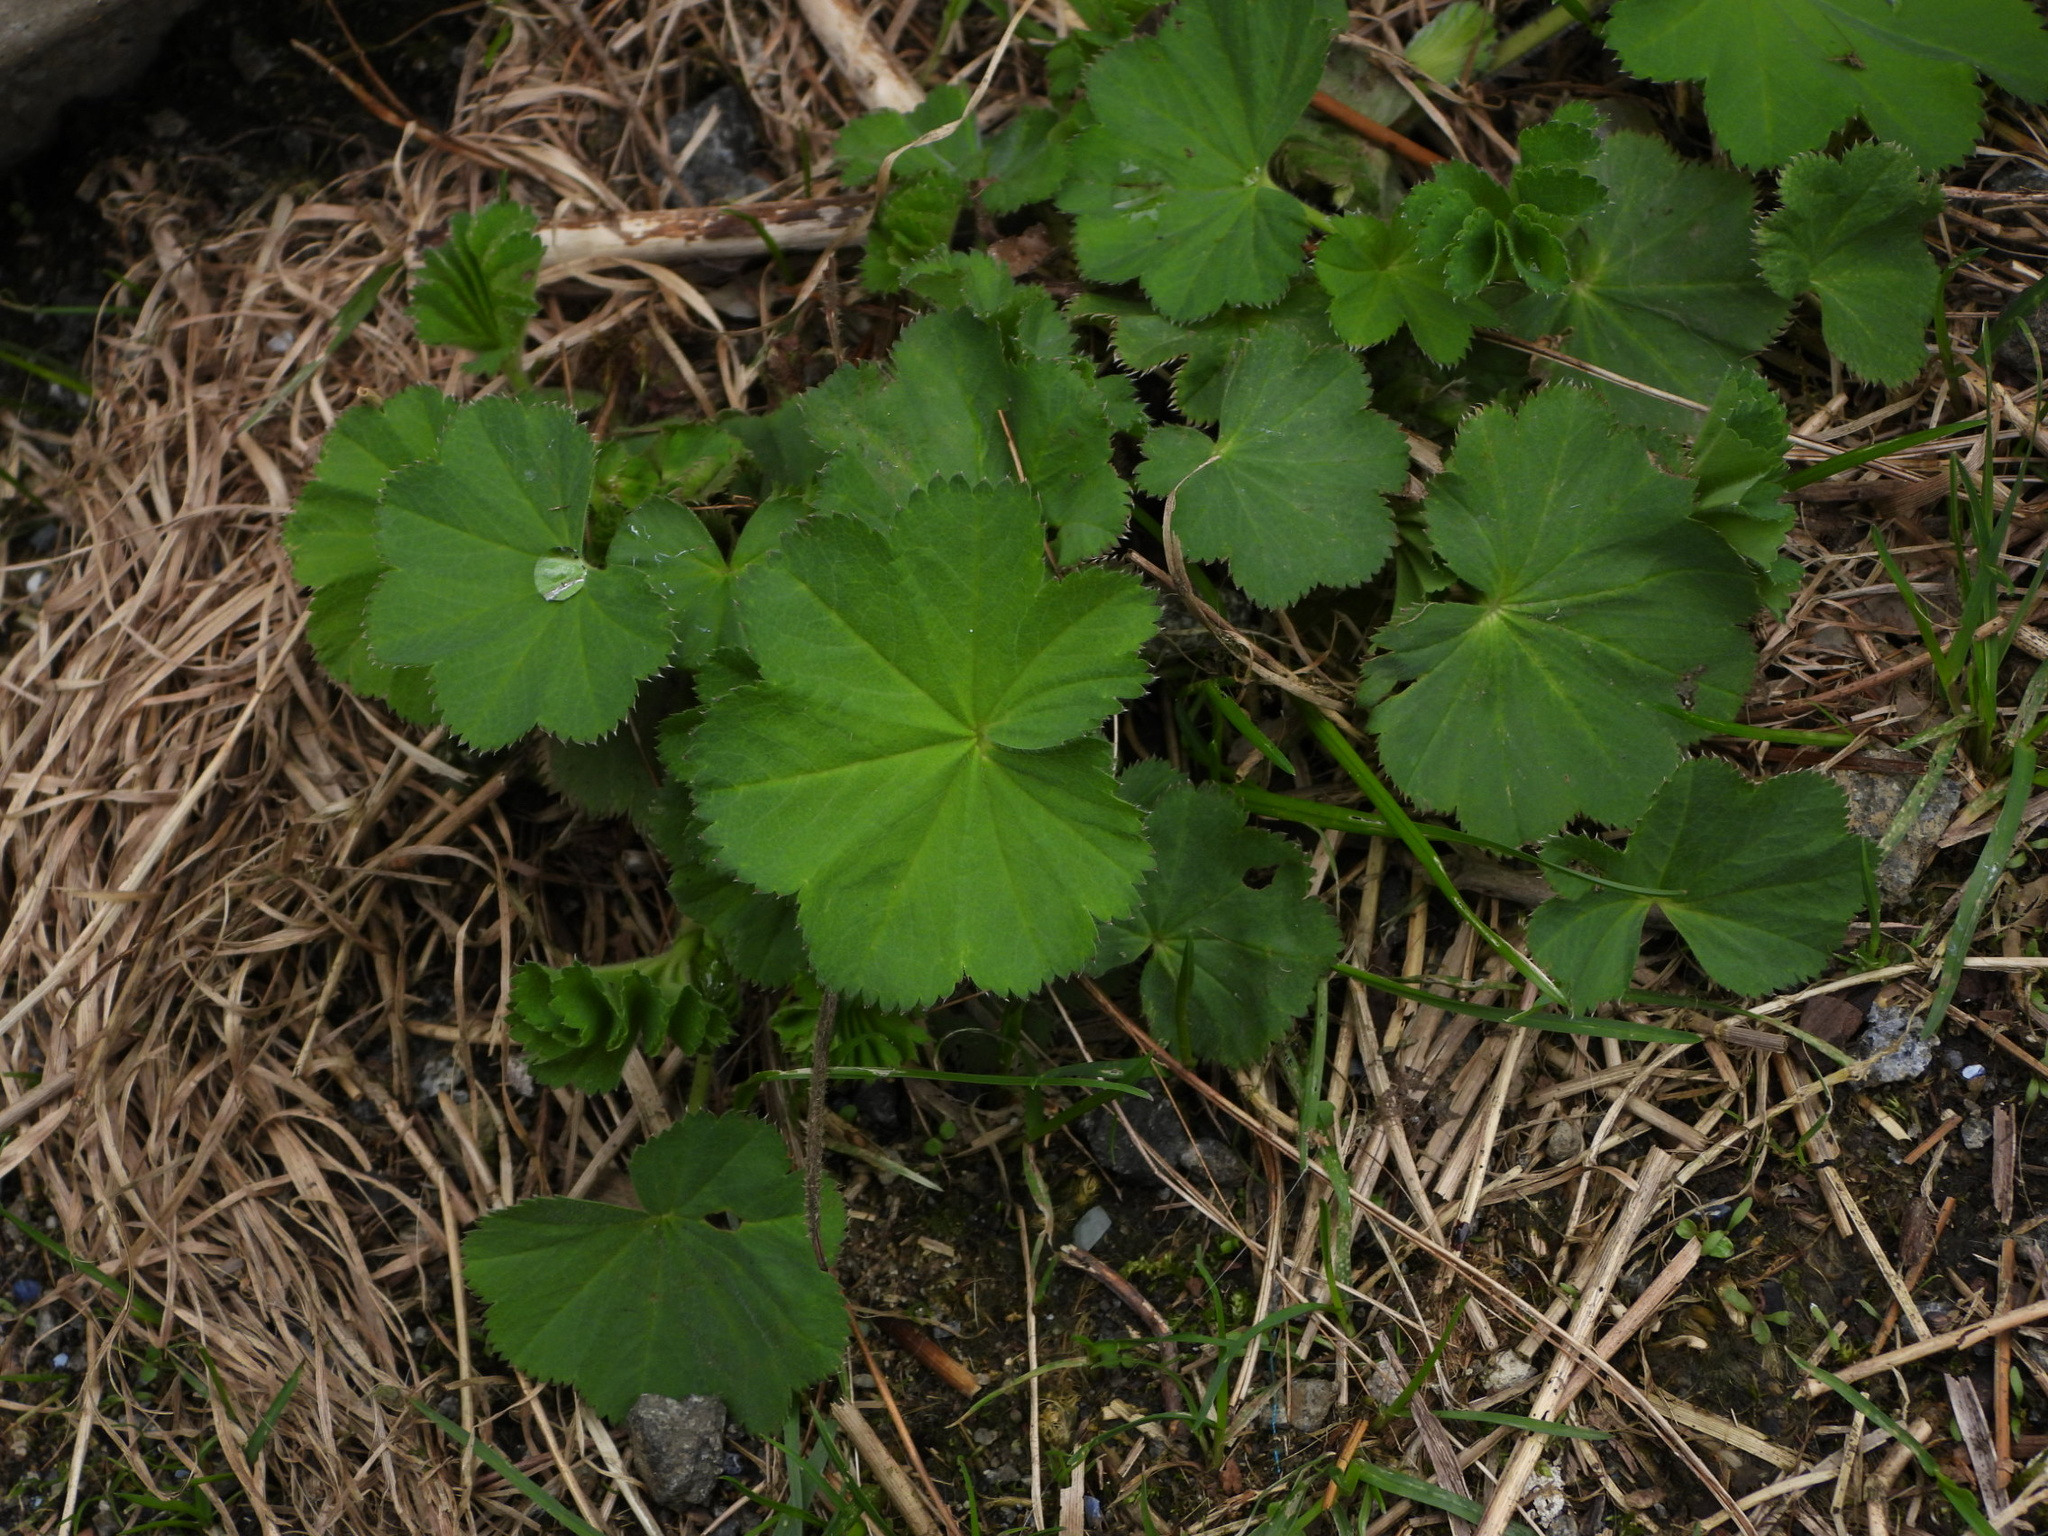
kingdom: Plantae
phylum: Tracheophyta
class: Magnoliopsida
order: Rosales
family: Rosaceae
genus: Alchemilla
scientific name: Alchemilla mollis
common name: Lady's-mantle
